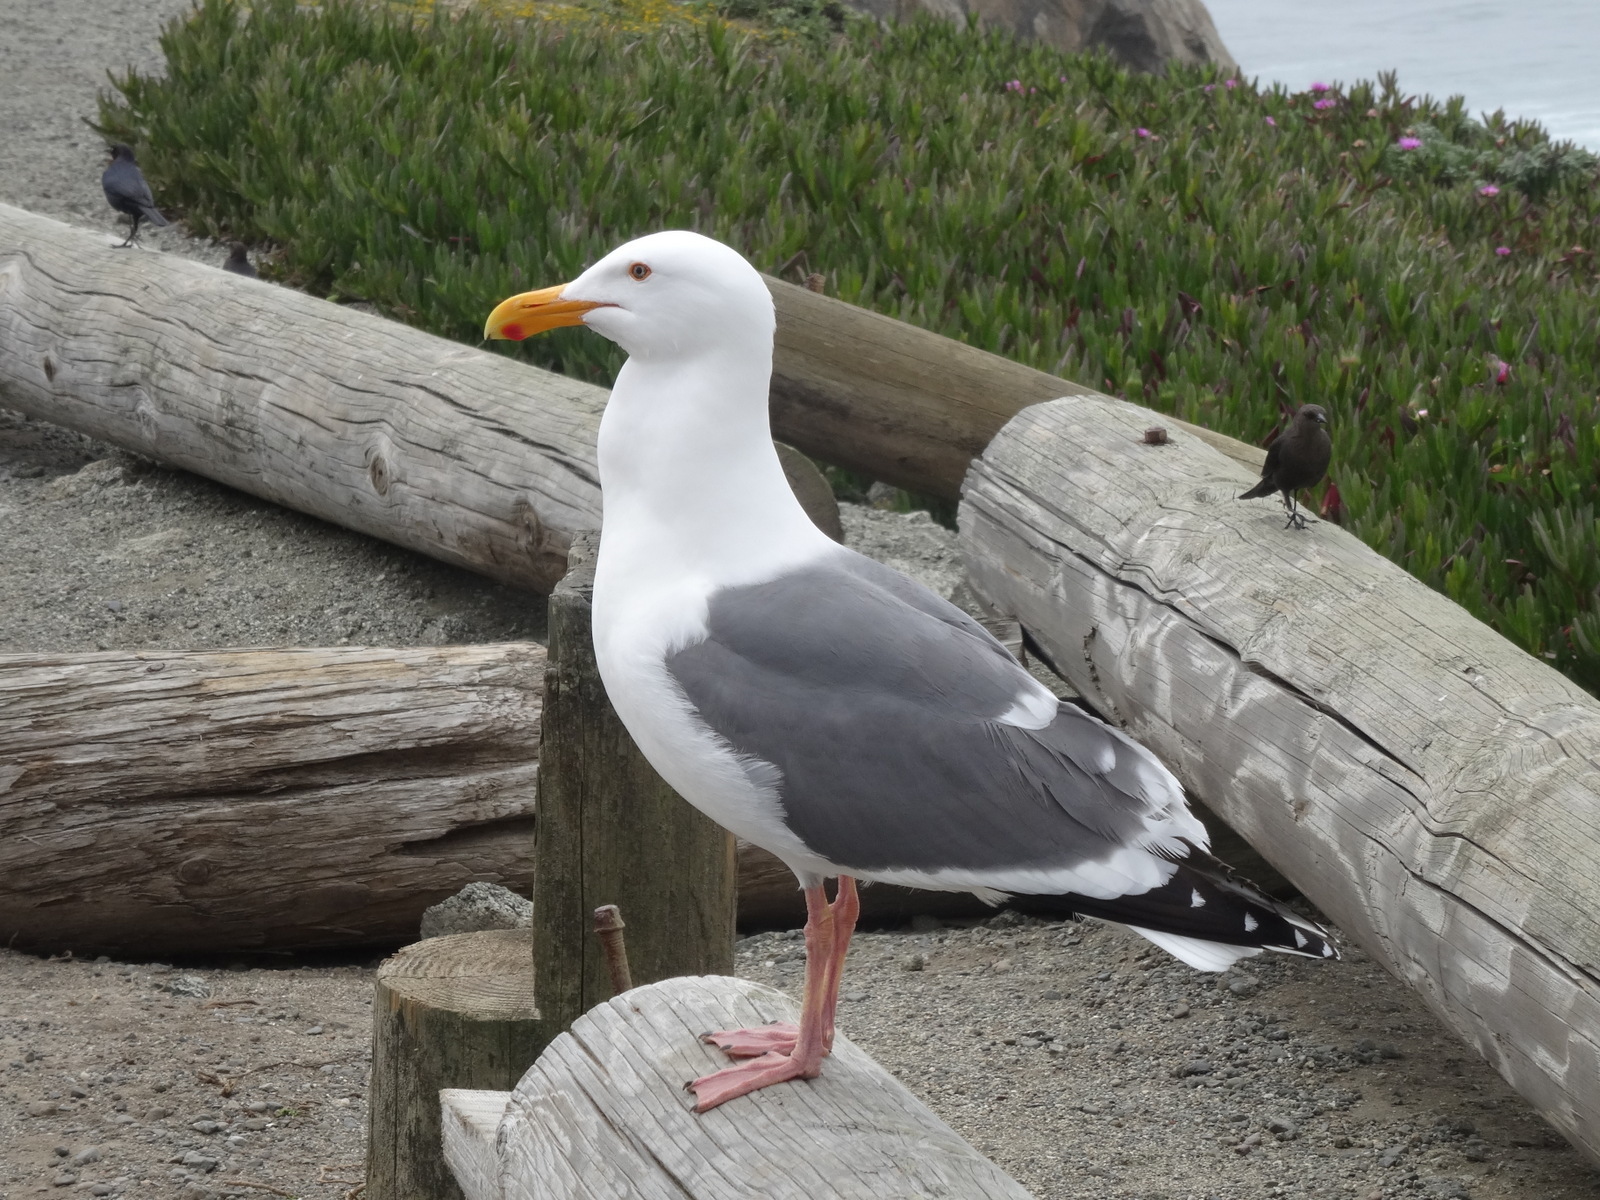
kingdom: Animalia
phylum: Chordata
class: Aves
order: Charadriiformes
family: Laridae
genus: Larus
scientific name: Larus occidentalis
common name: Western gull
